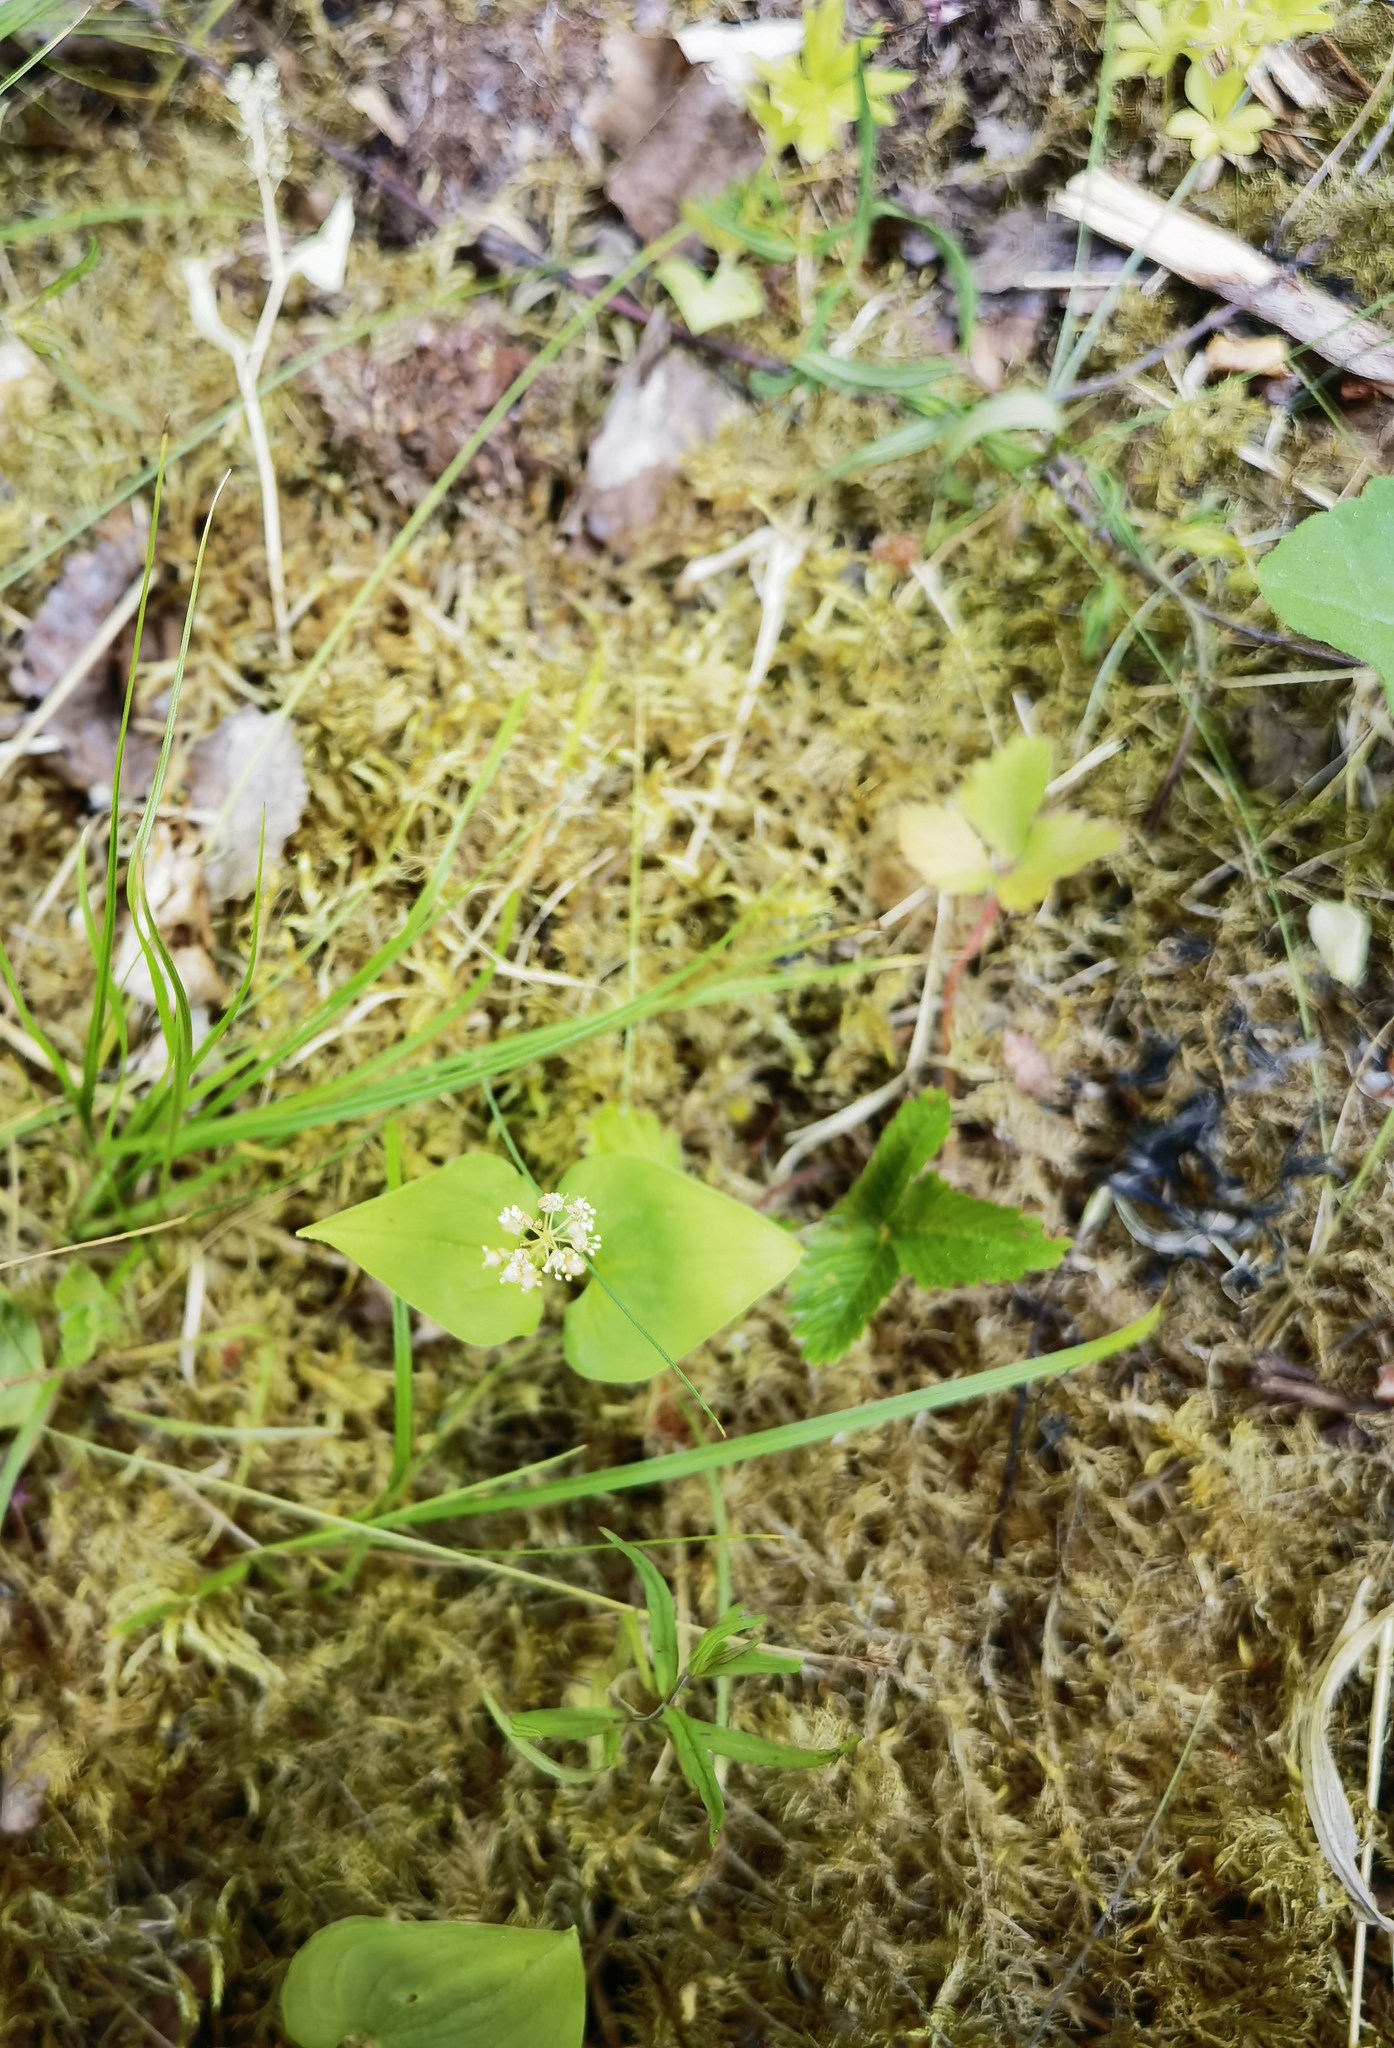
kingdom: Plantae
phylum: Tracheophyta
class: Liliopsida
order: Asparagales
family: Asparagaceae
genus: Maianthemum
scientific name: Maianthemum bifolium
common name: May lily
